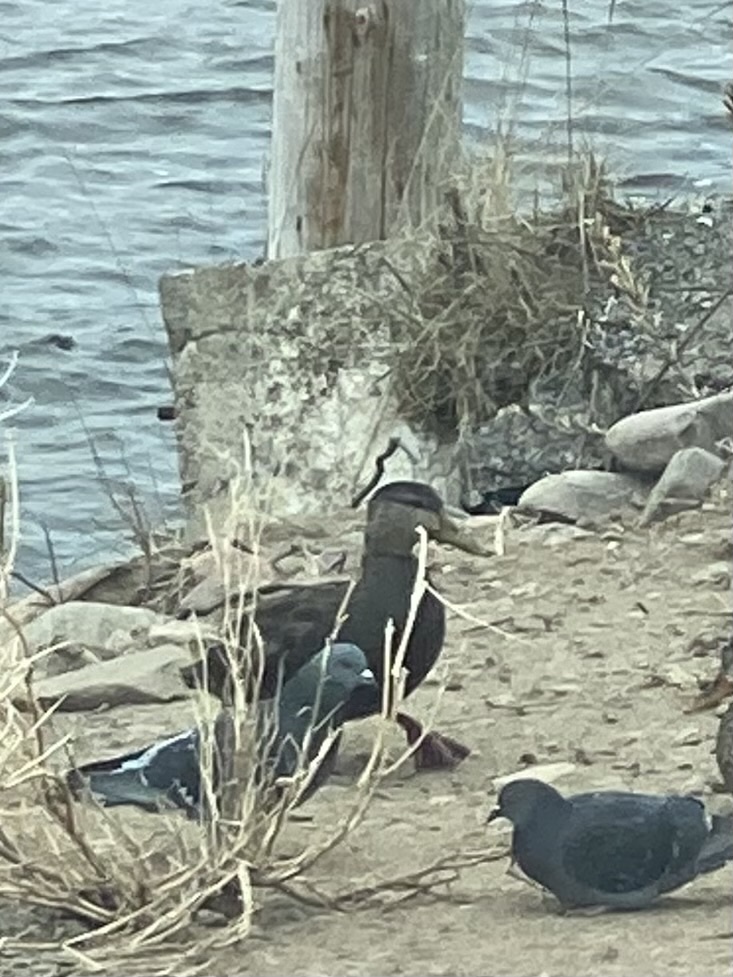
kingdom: Animalia
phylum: Chordata
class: Aves
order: Anseriformes
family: Anatidae
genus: Anas
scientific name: Anas rubripes
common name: American black duck
